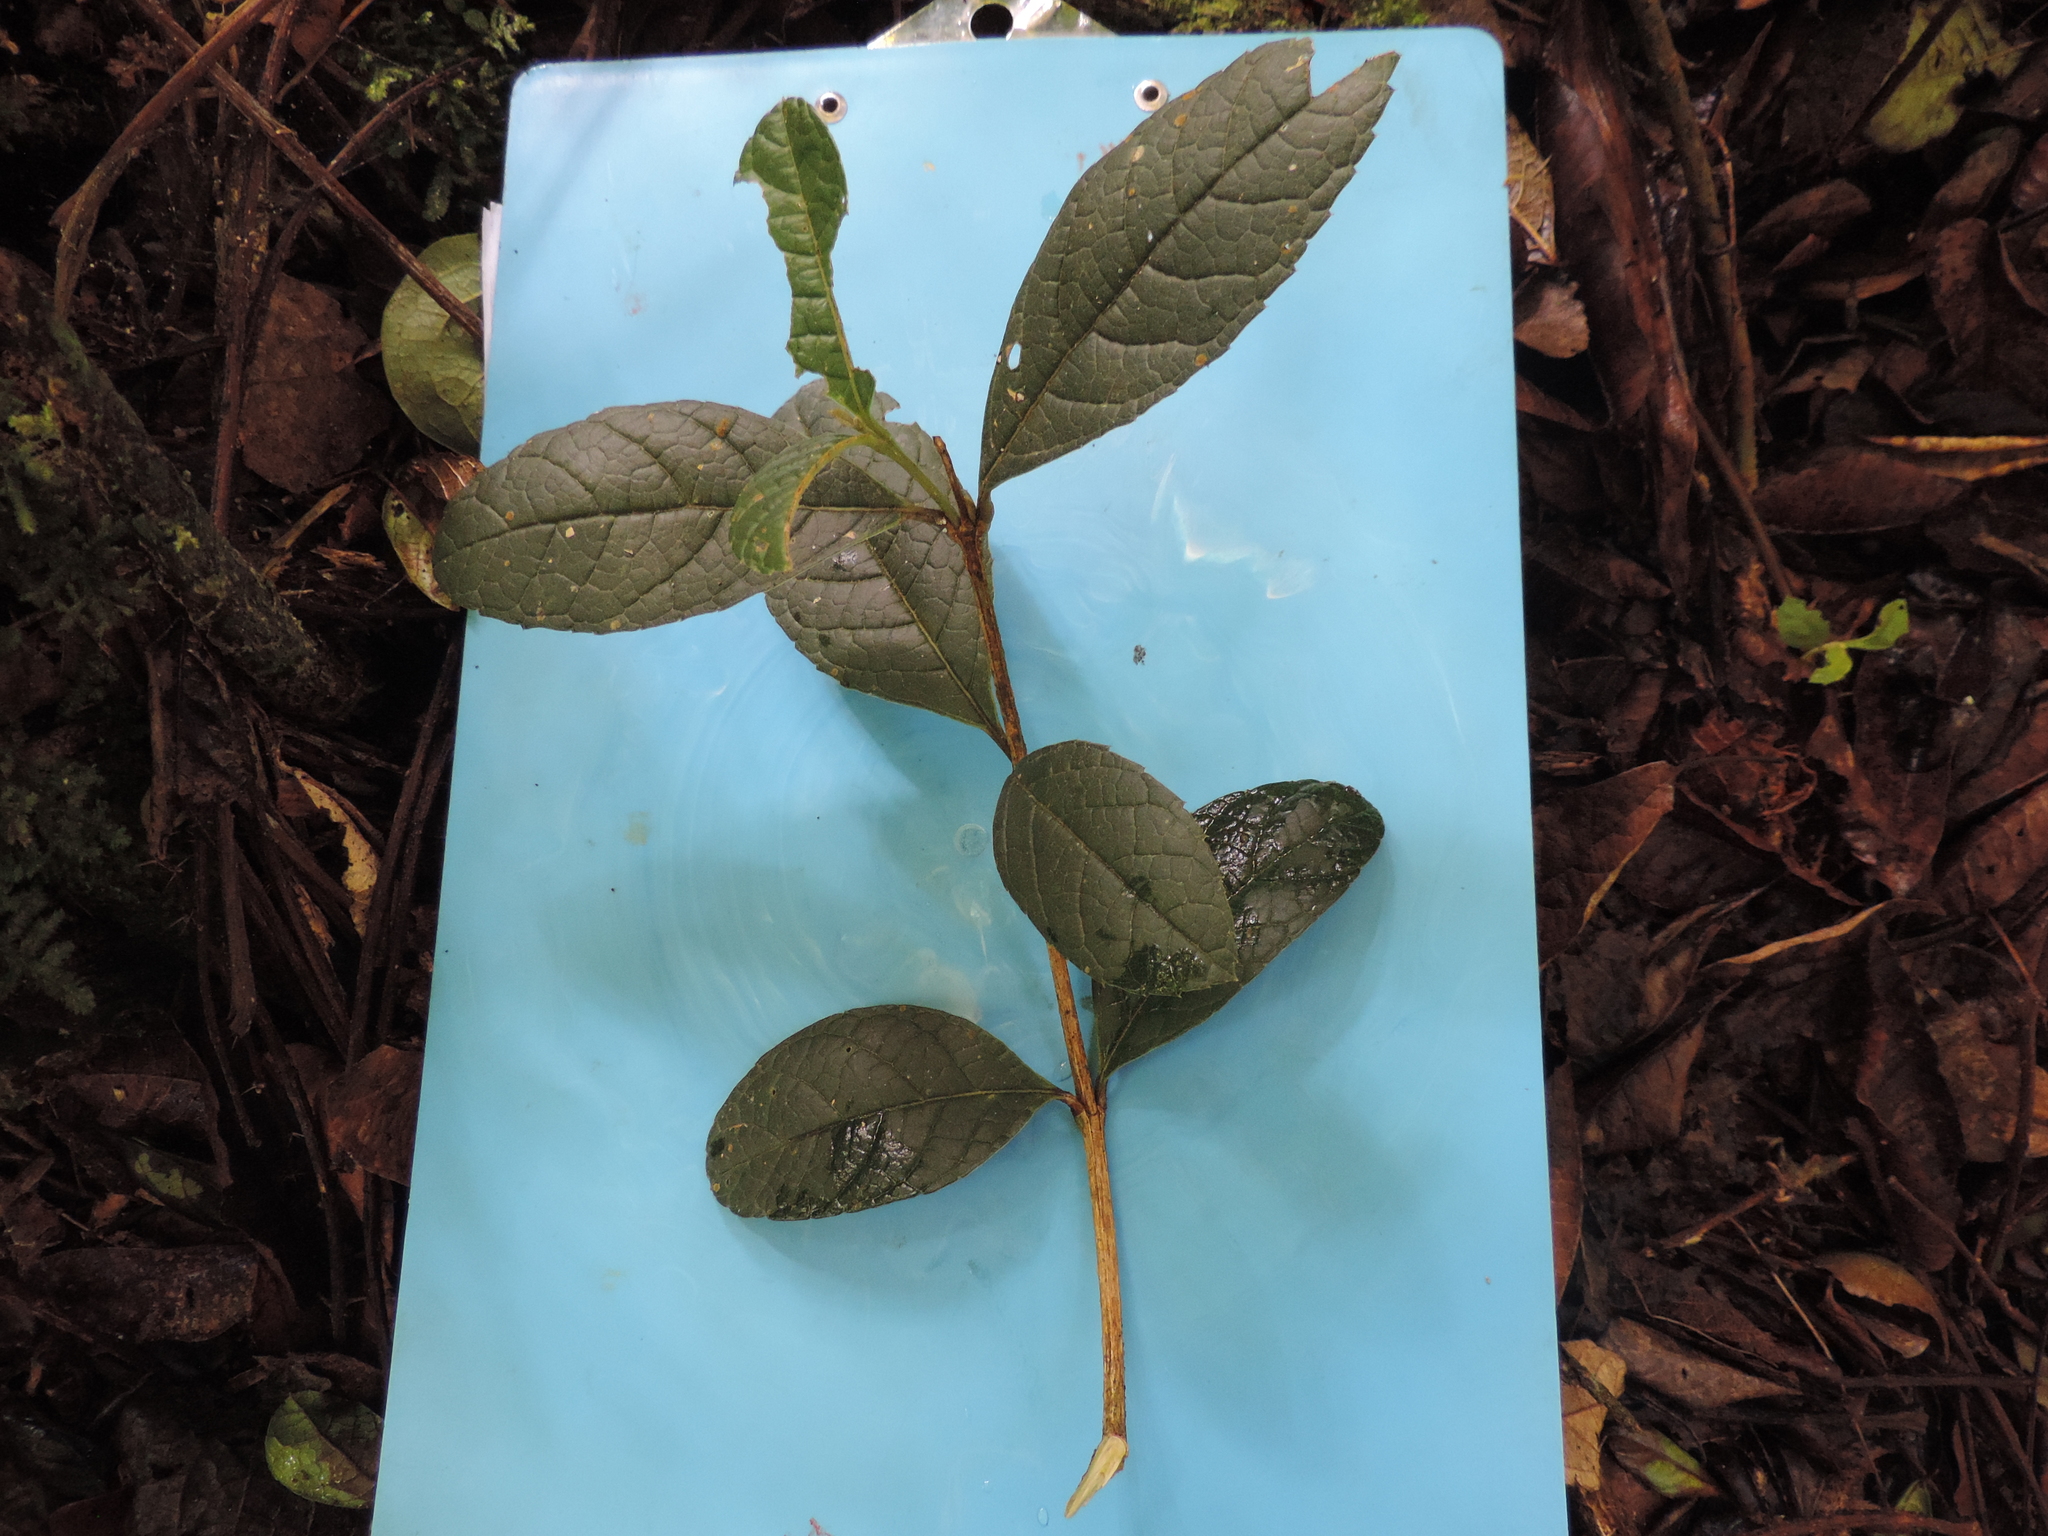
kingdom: Plantae
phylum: Tracheophyta
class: Magnoliopsida
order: Lamiales
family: Verbenaceae
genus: Citharexylum
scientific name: Citharexylum reticulatum
